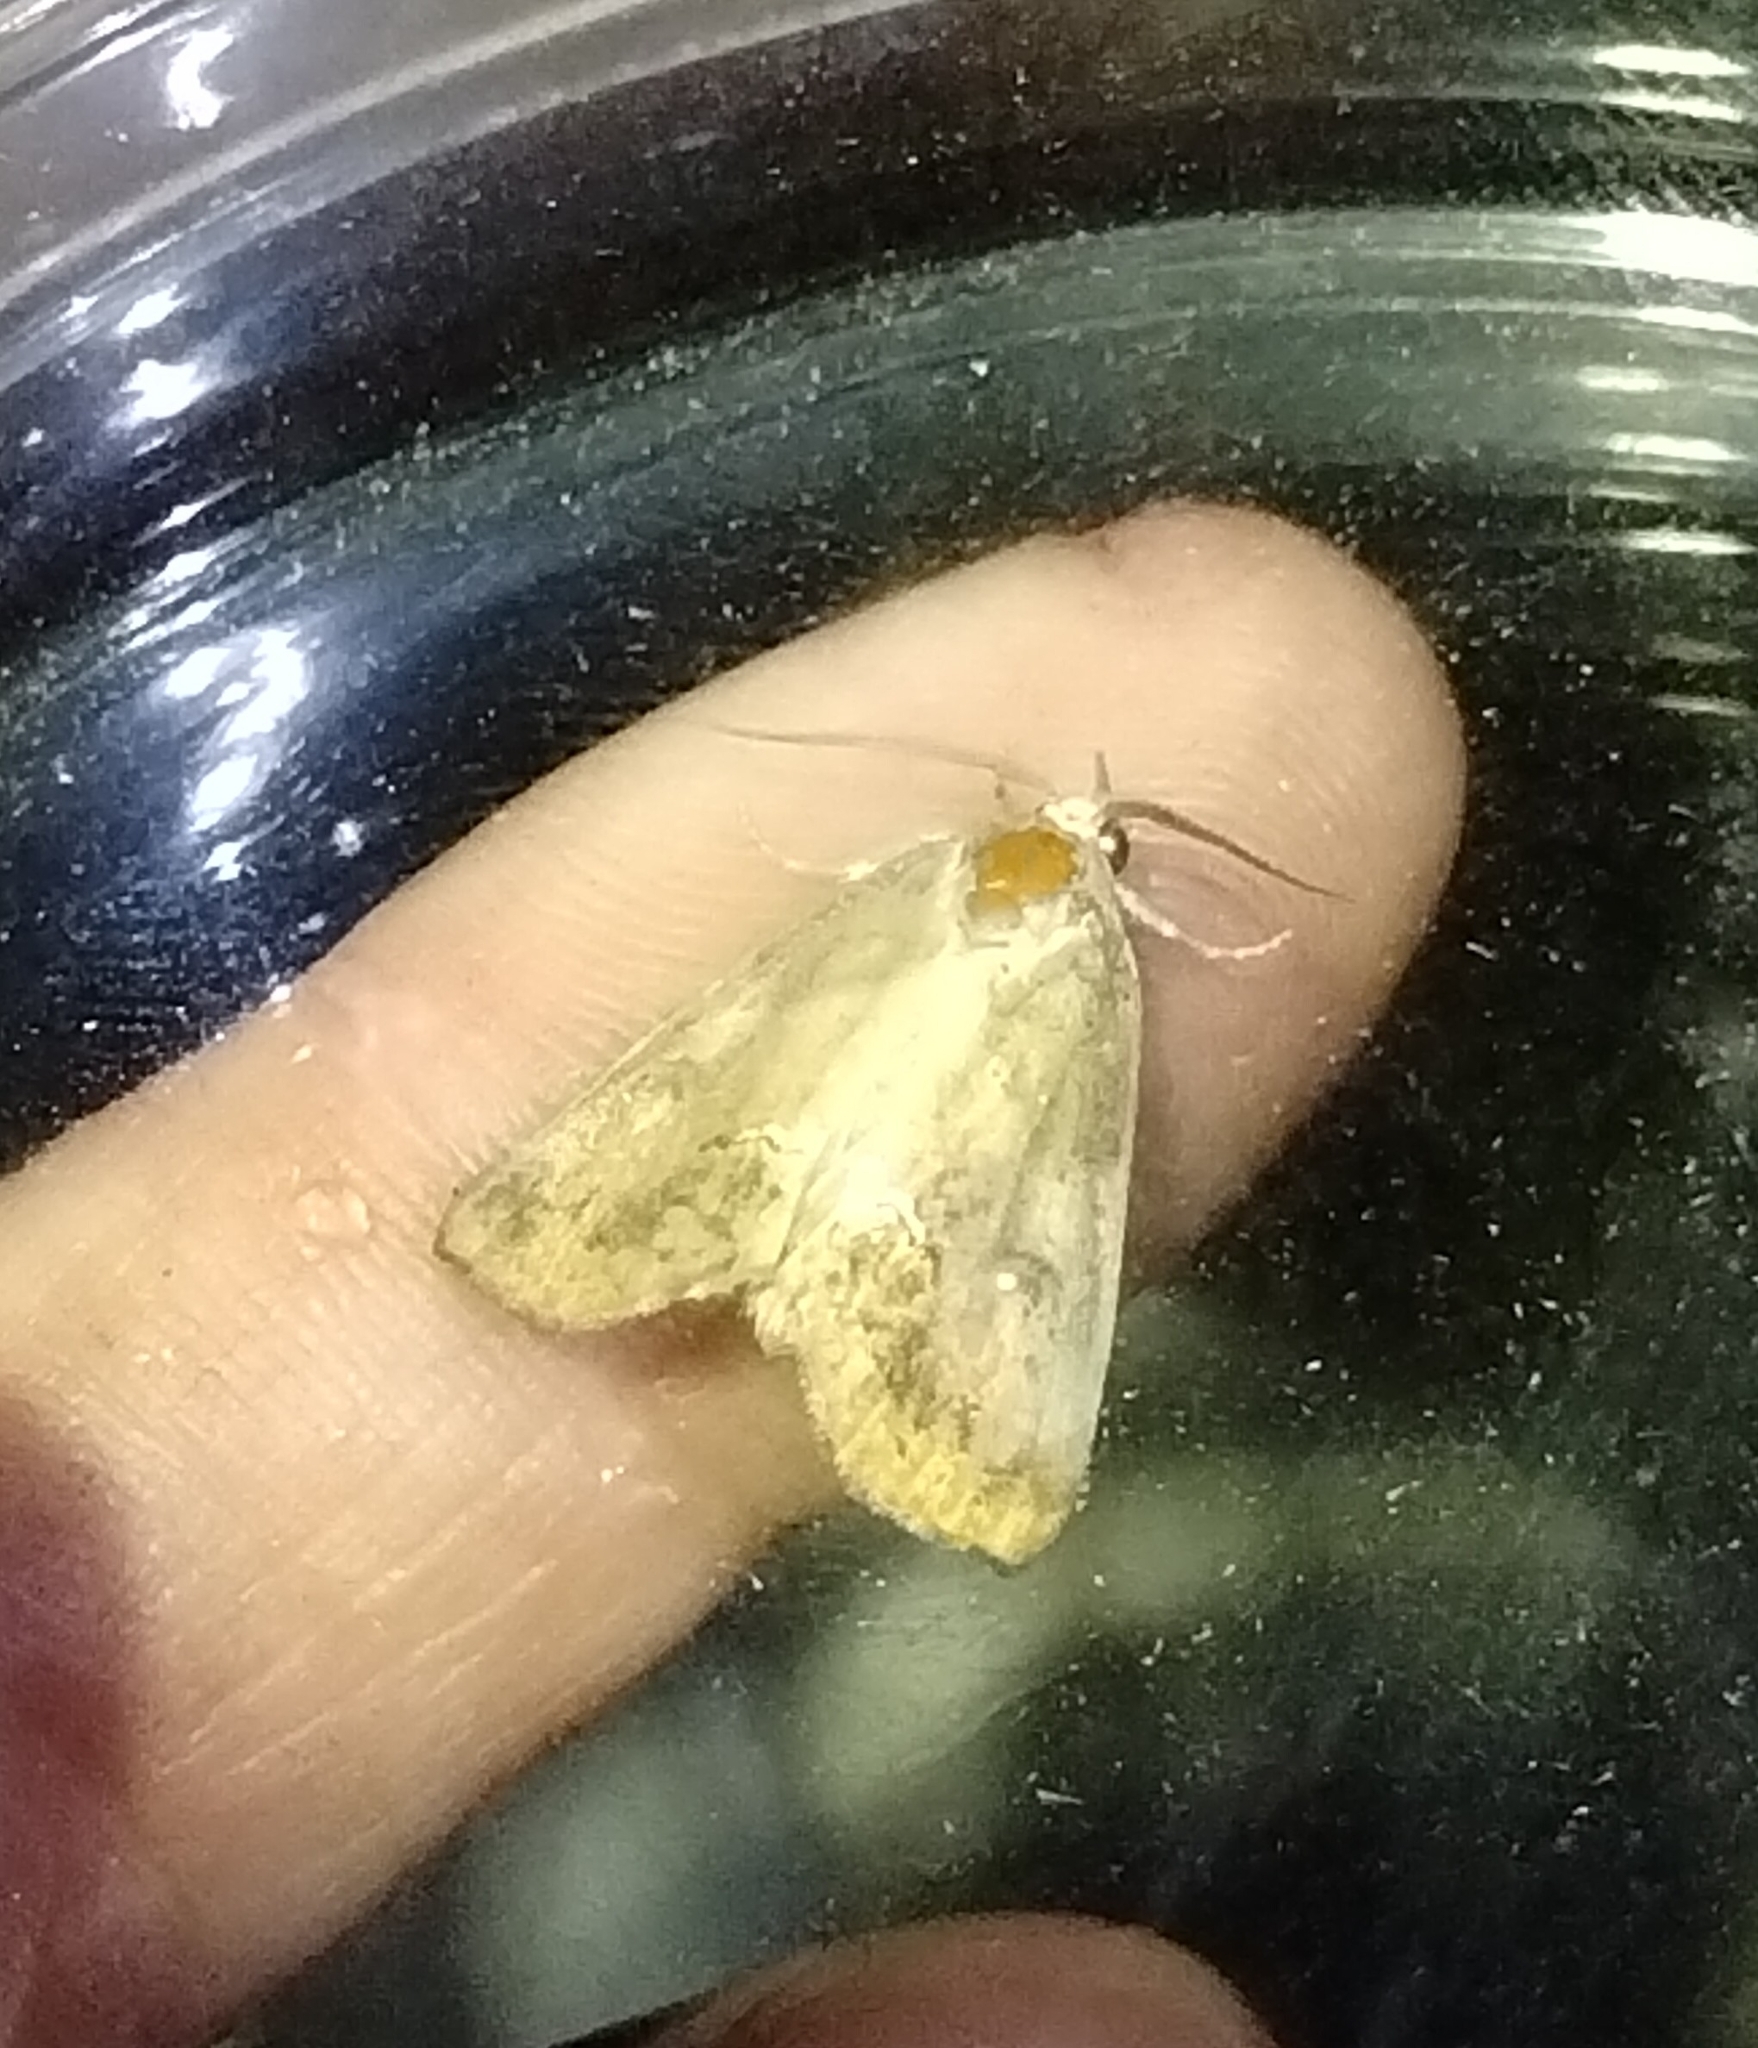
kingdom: Animalia
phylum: Arthropoda
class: Insecta
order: Lepidoptera
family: Erebidae
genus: Hypsoropha
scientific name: Hypsoropha hormos
